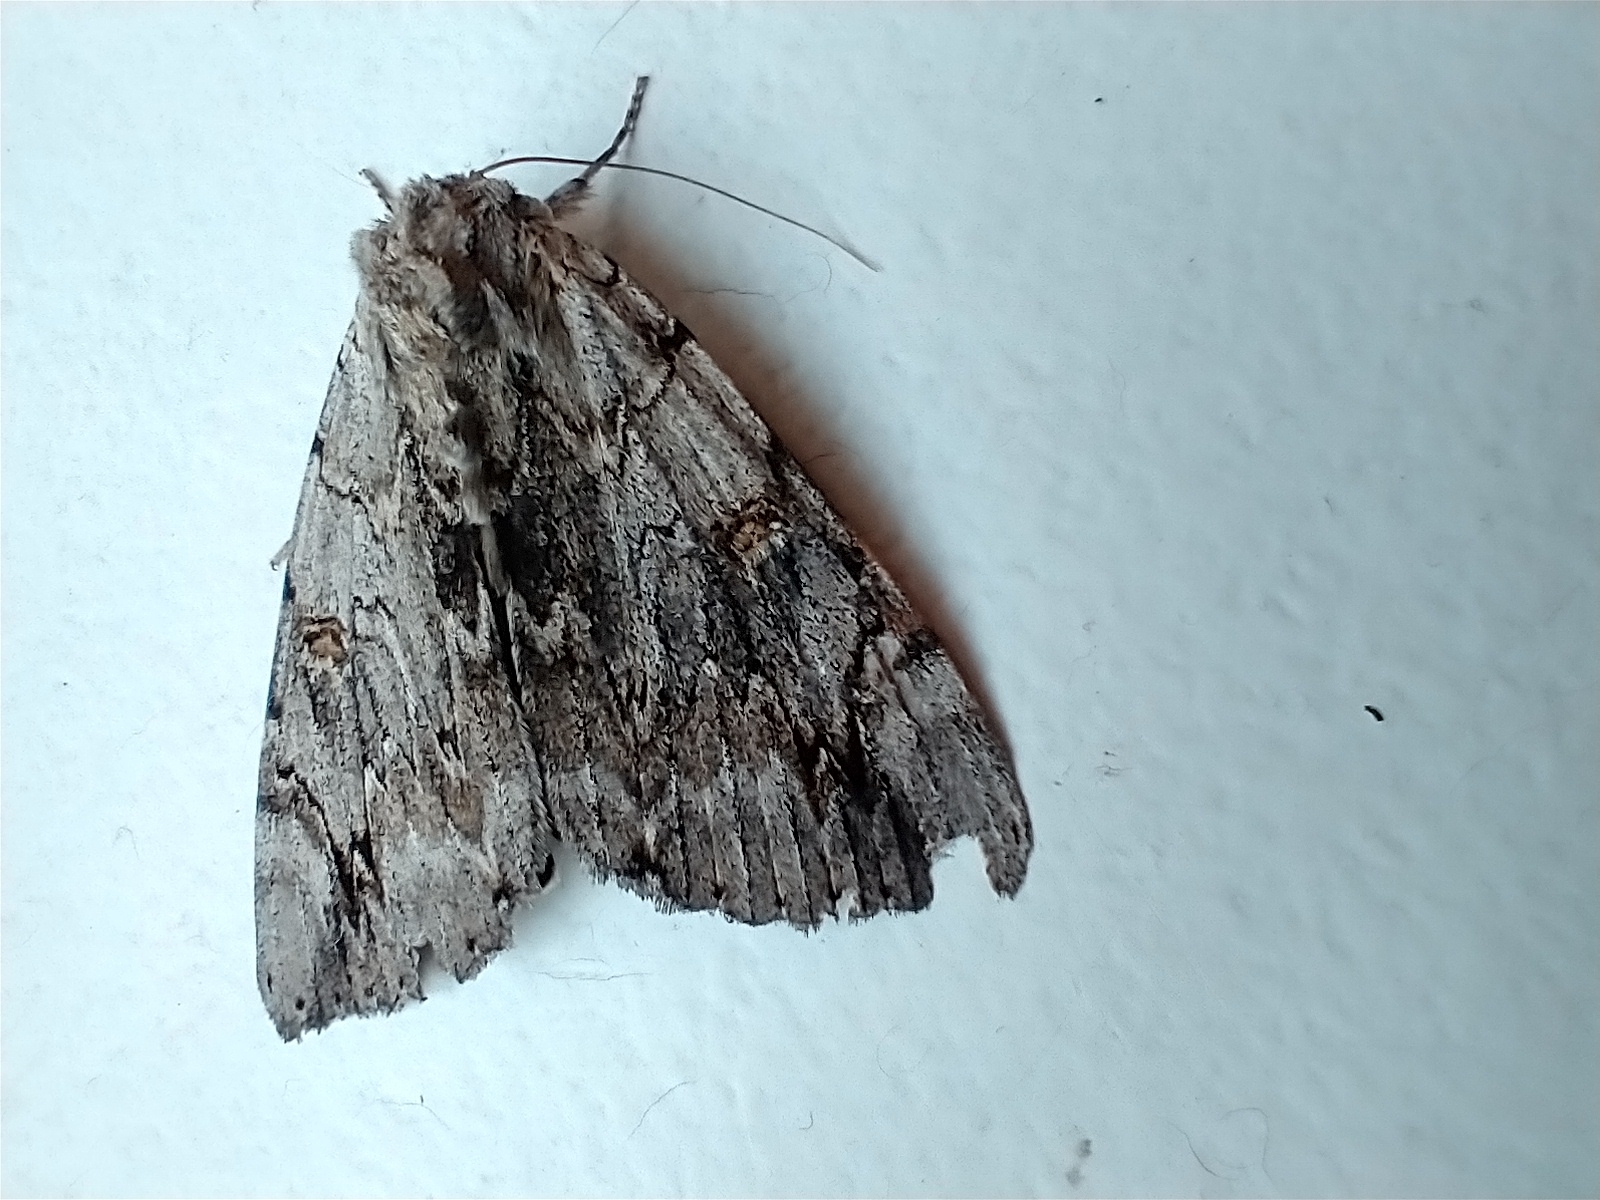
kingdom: Animalia
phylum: Arthropoda
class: Insecta
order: Lepidoptera
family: Erebidae
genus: Catocala
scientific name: Catocala electa
